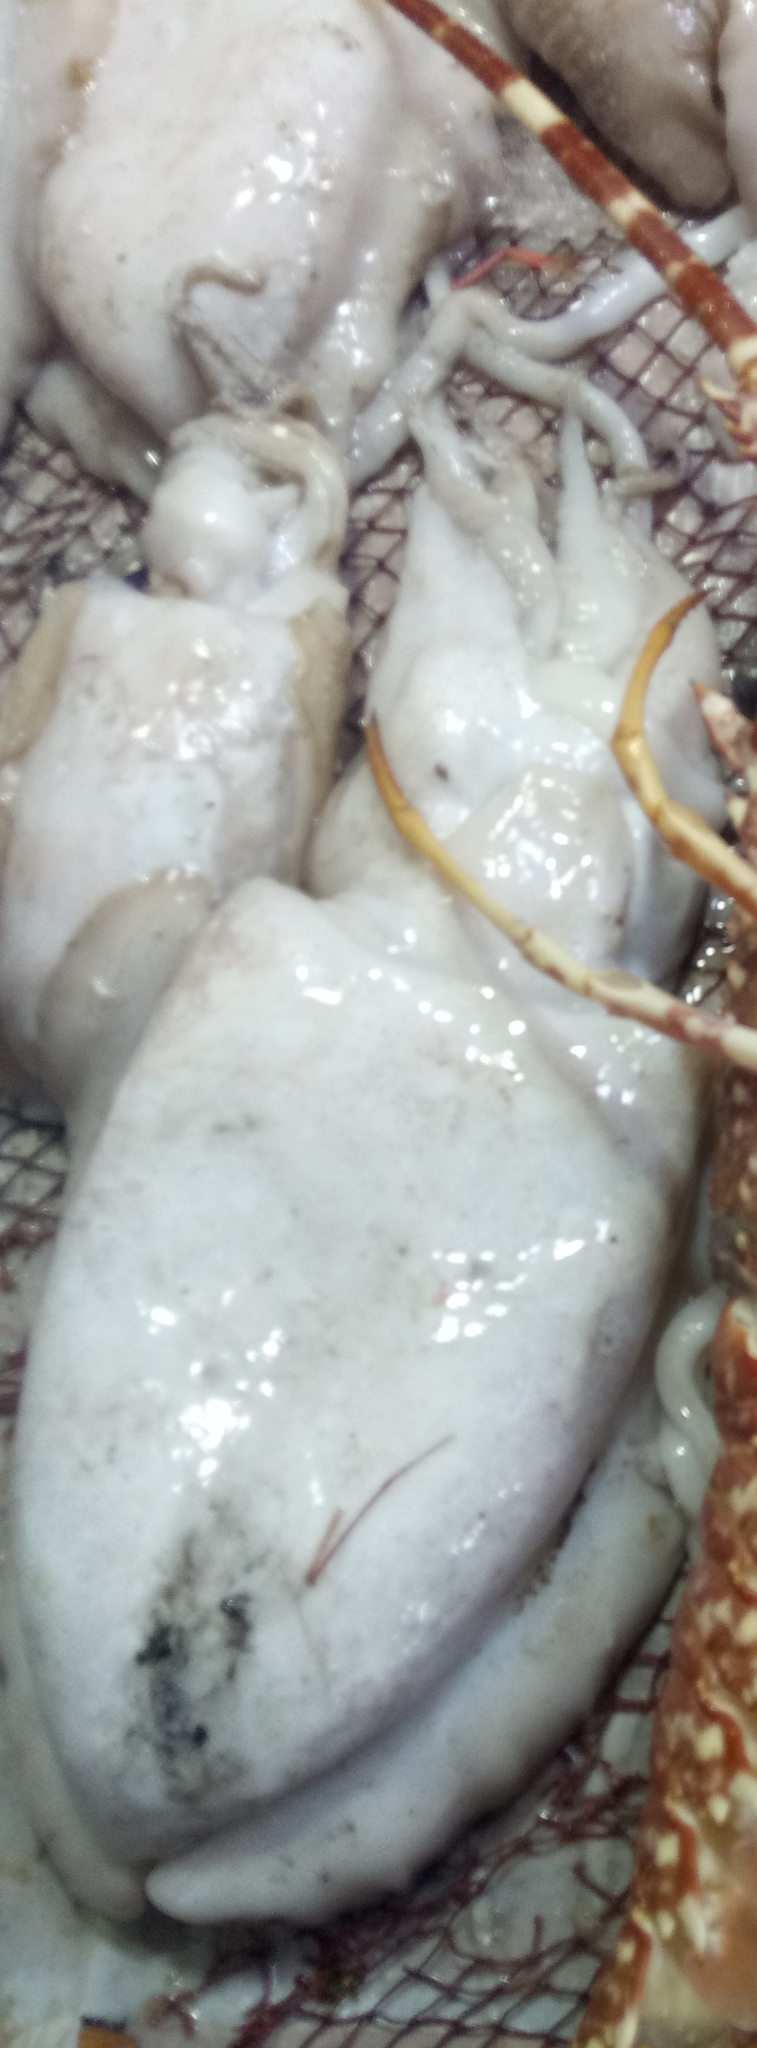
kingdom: Animalia
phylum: Mollusca
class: Cephalopoda
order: Sepiida
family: Sepiidae
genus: Sepia
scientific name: Sepia officinalis
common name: Common cuttlefish
